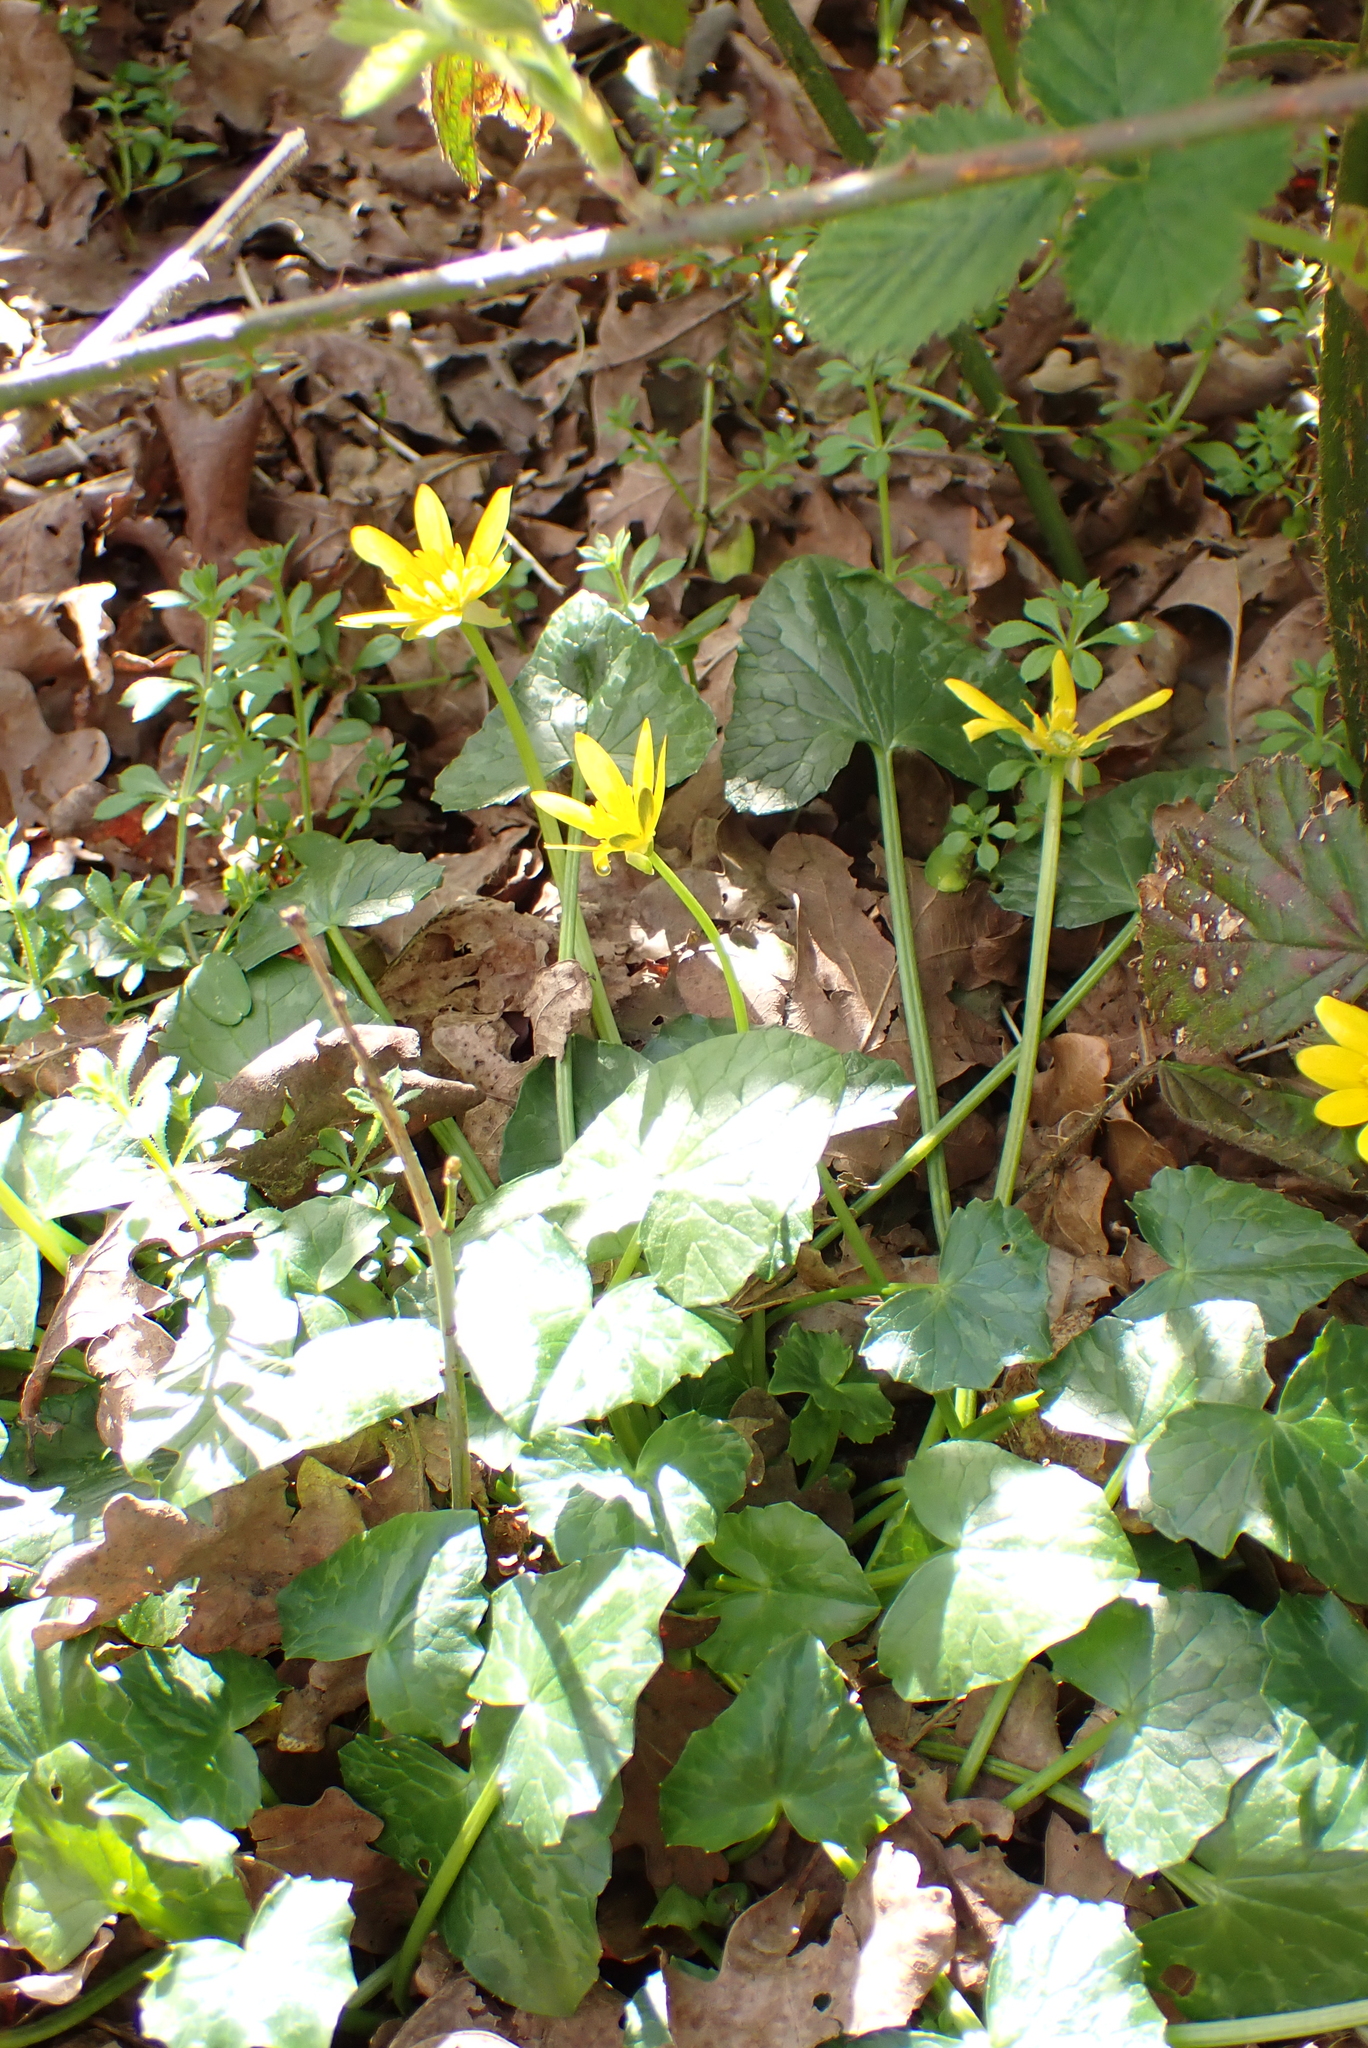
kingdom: Plantae
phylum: Tracheophyta
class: Magnoliopsida
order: Ranunculales
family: Ranunculaceae
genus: Ficaria
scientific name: Ficaria verna
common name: Lesser celandine
